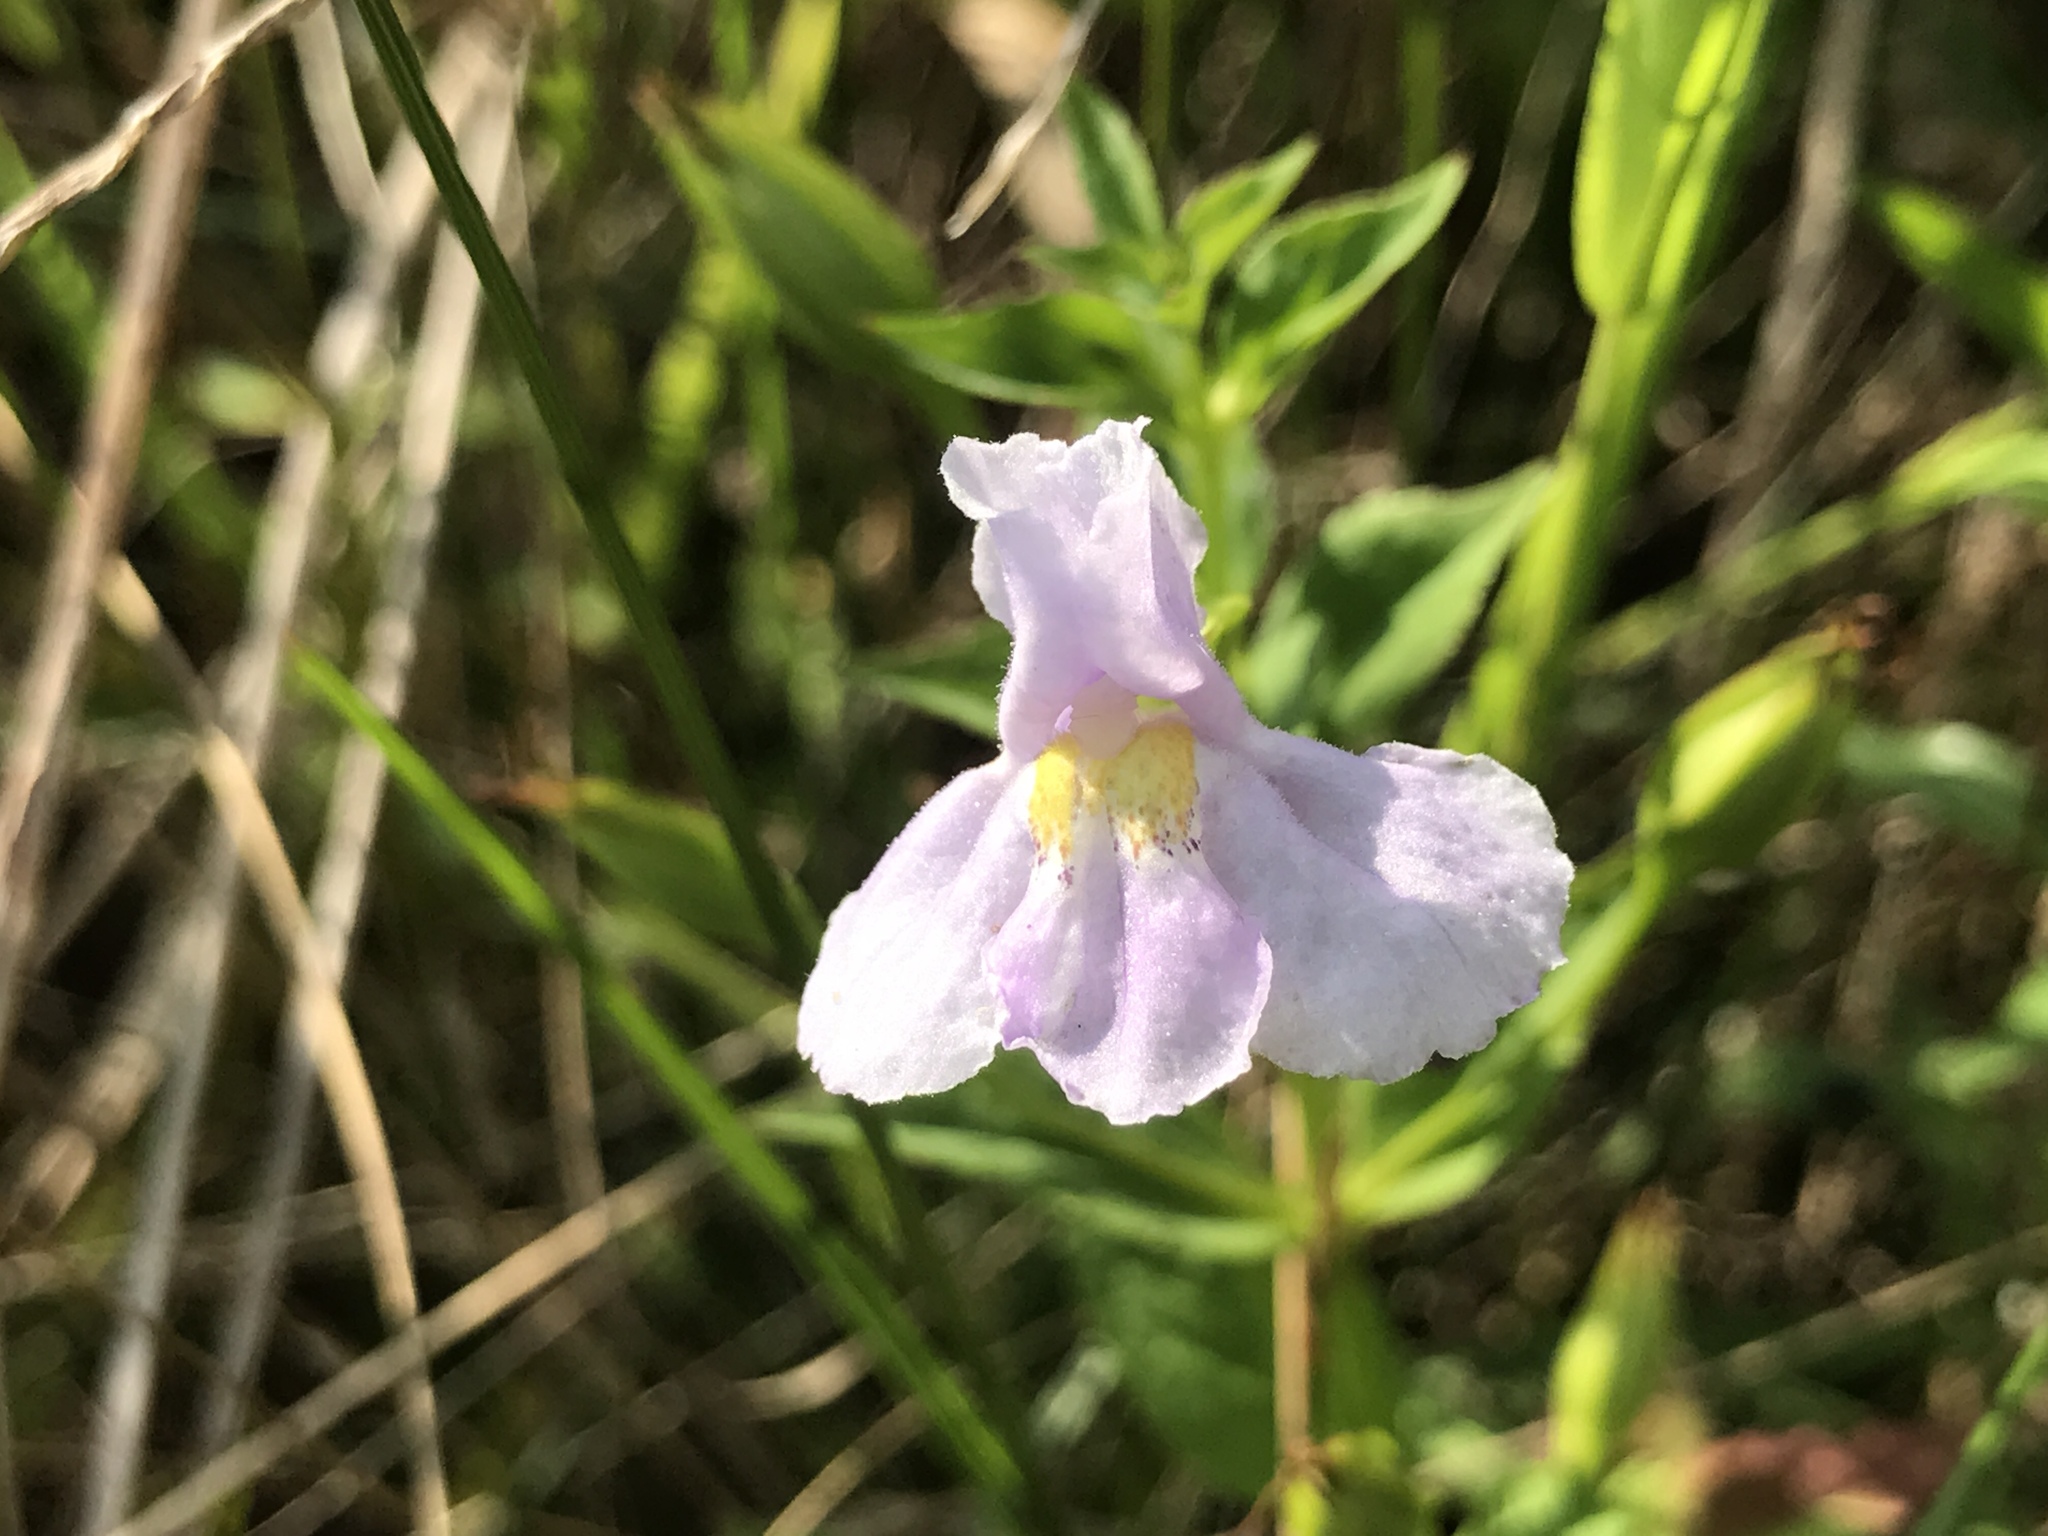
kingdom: Plantae
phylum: Tracheophyta
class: Magnoliopsida
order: Lamiales
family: Phrymaceae
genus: Mimulus
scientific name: Mimulus ringens
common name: Allegheny monkeyflower
